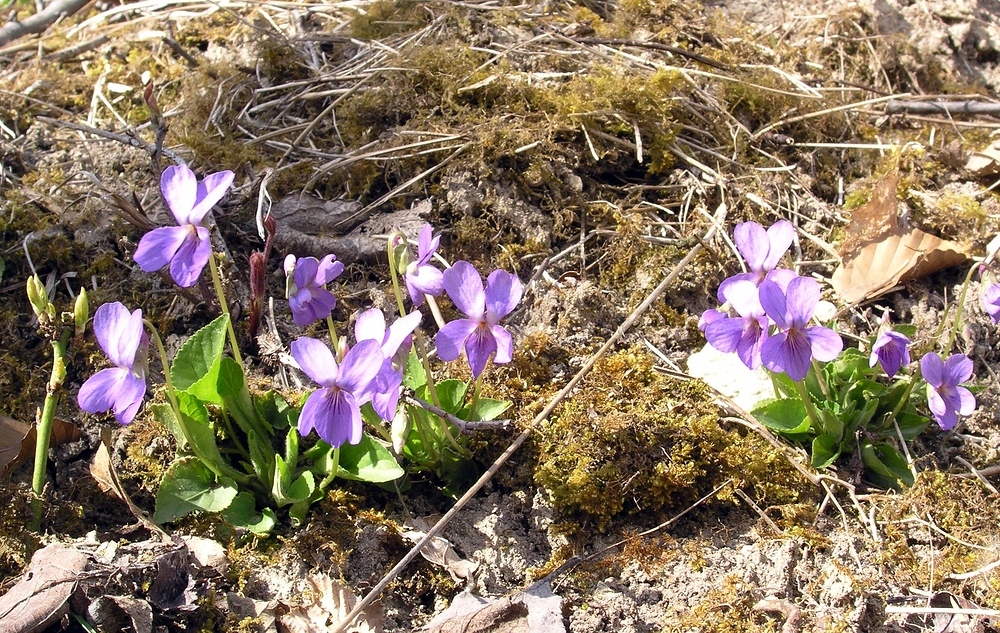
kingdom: Plantae
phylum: Tracheophyta
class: Magnoliopsida
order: Malpighiales
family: Violaceae
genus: Viola
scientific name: Viola hirta
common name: Hairy violet
